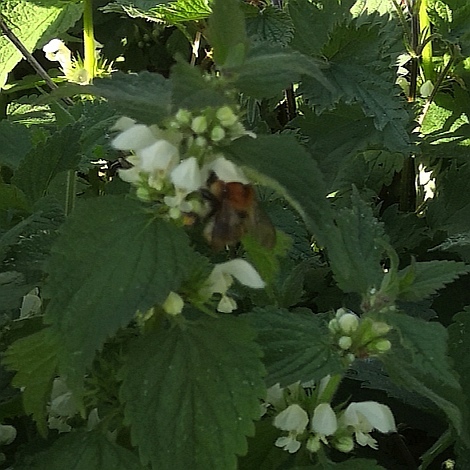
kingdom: Animalia
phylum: Arthropoda
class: Insecta
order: Hymenoptera
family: Apidae
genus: Bombus
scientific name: Bombus pascuorum
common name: Common carder bee
